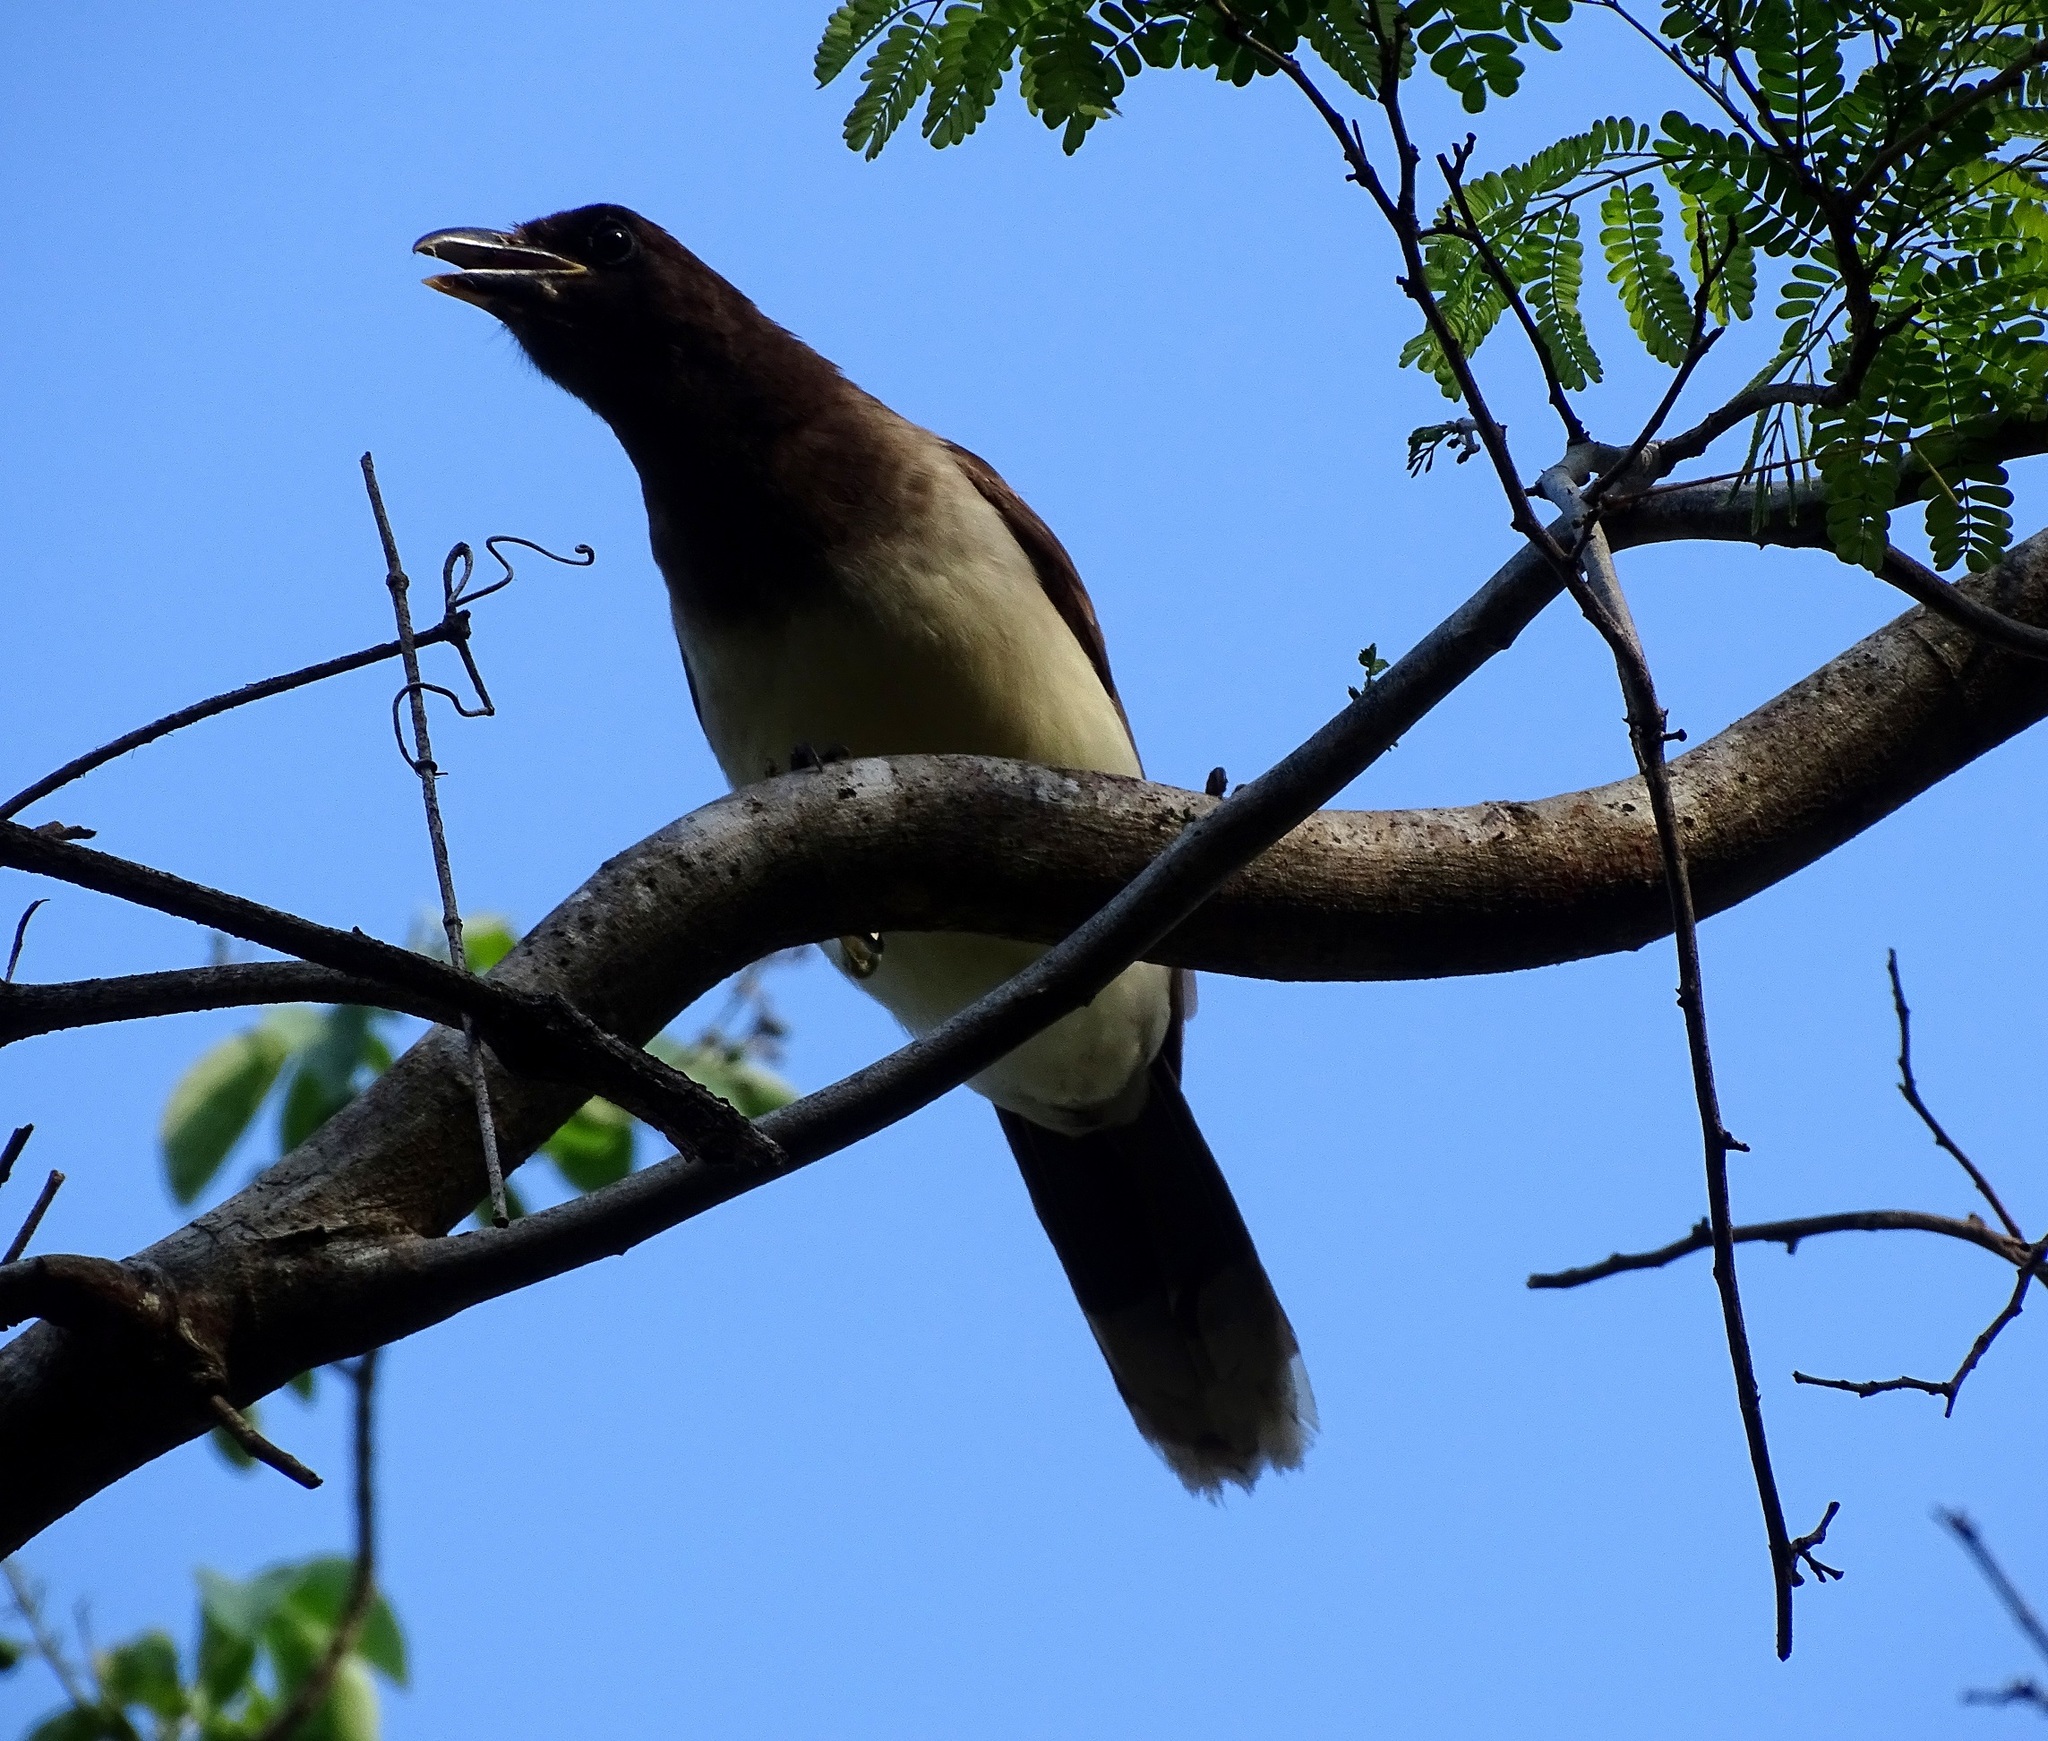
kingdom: Animalia
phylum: Chordata
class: Aves
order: Passeriformes
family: Corvidae
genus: Psilorhinus
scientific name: Psilorhinus morio
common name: Brown jay
